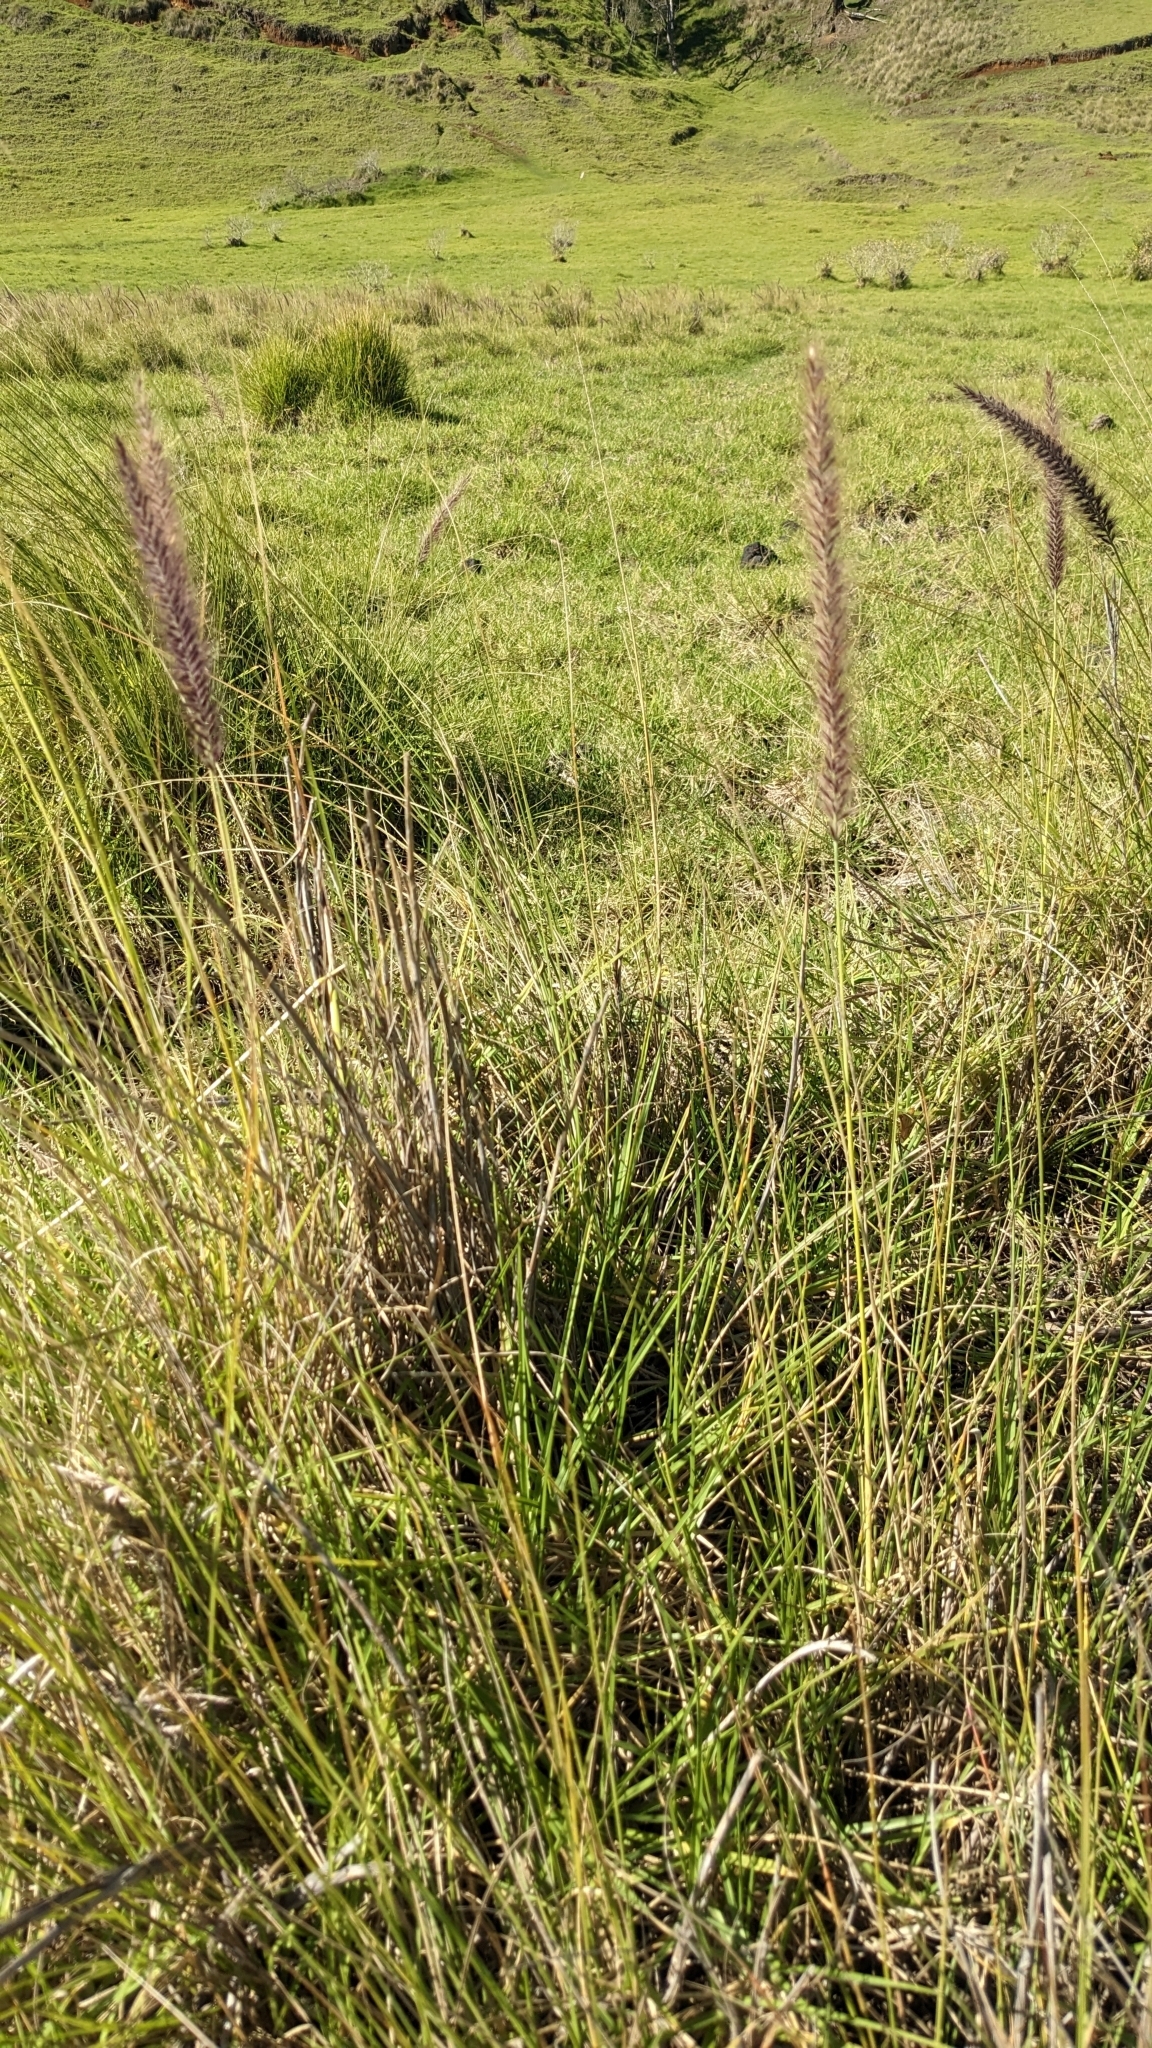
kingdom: Plantae
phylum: Tracheophyta
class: Liliopsida
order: Poales
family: Poaceae
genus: Cenchrus
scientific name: Cenchrus setaceus
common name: Crimson fountaingrass
